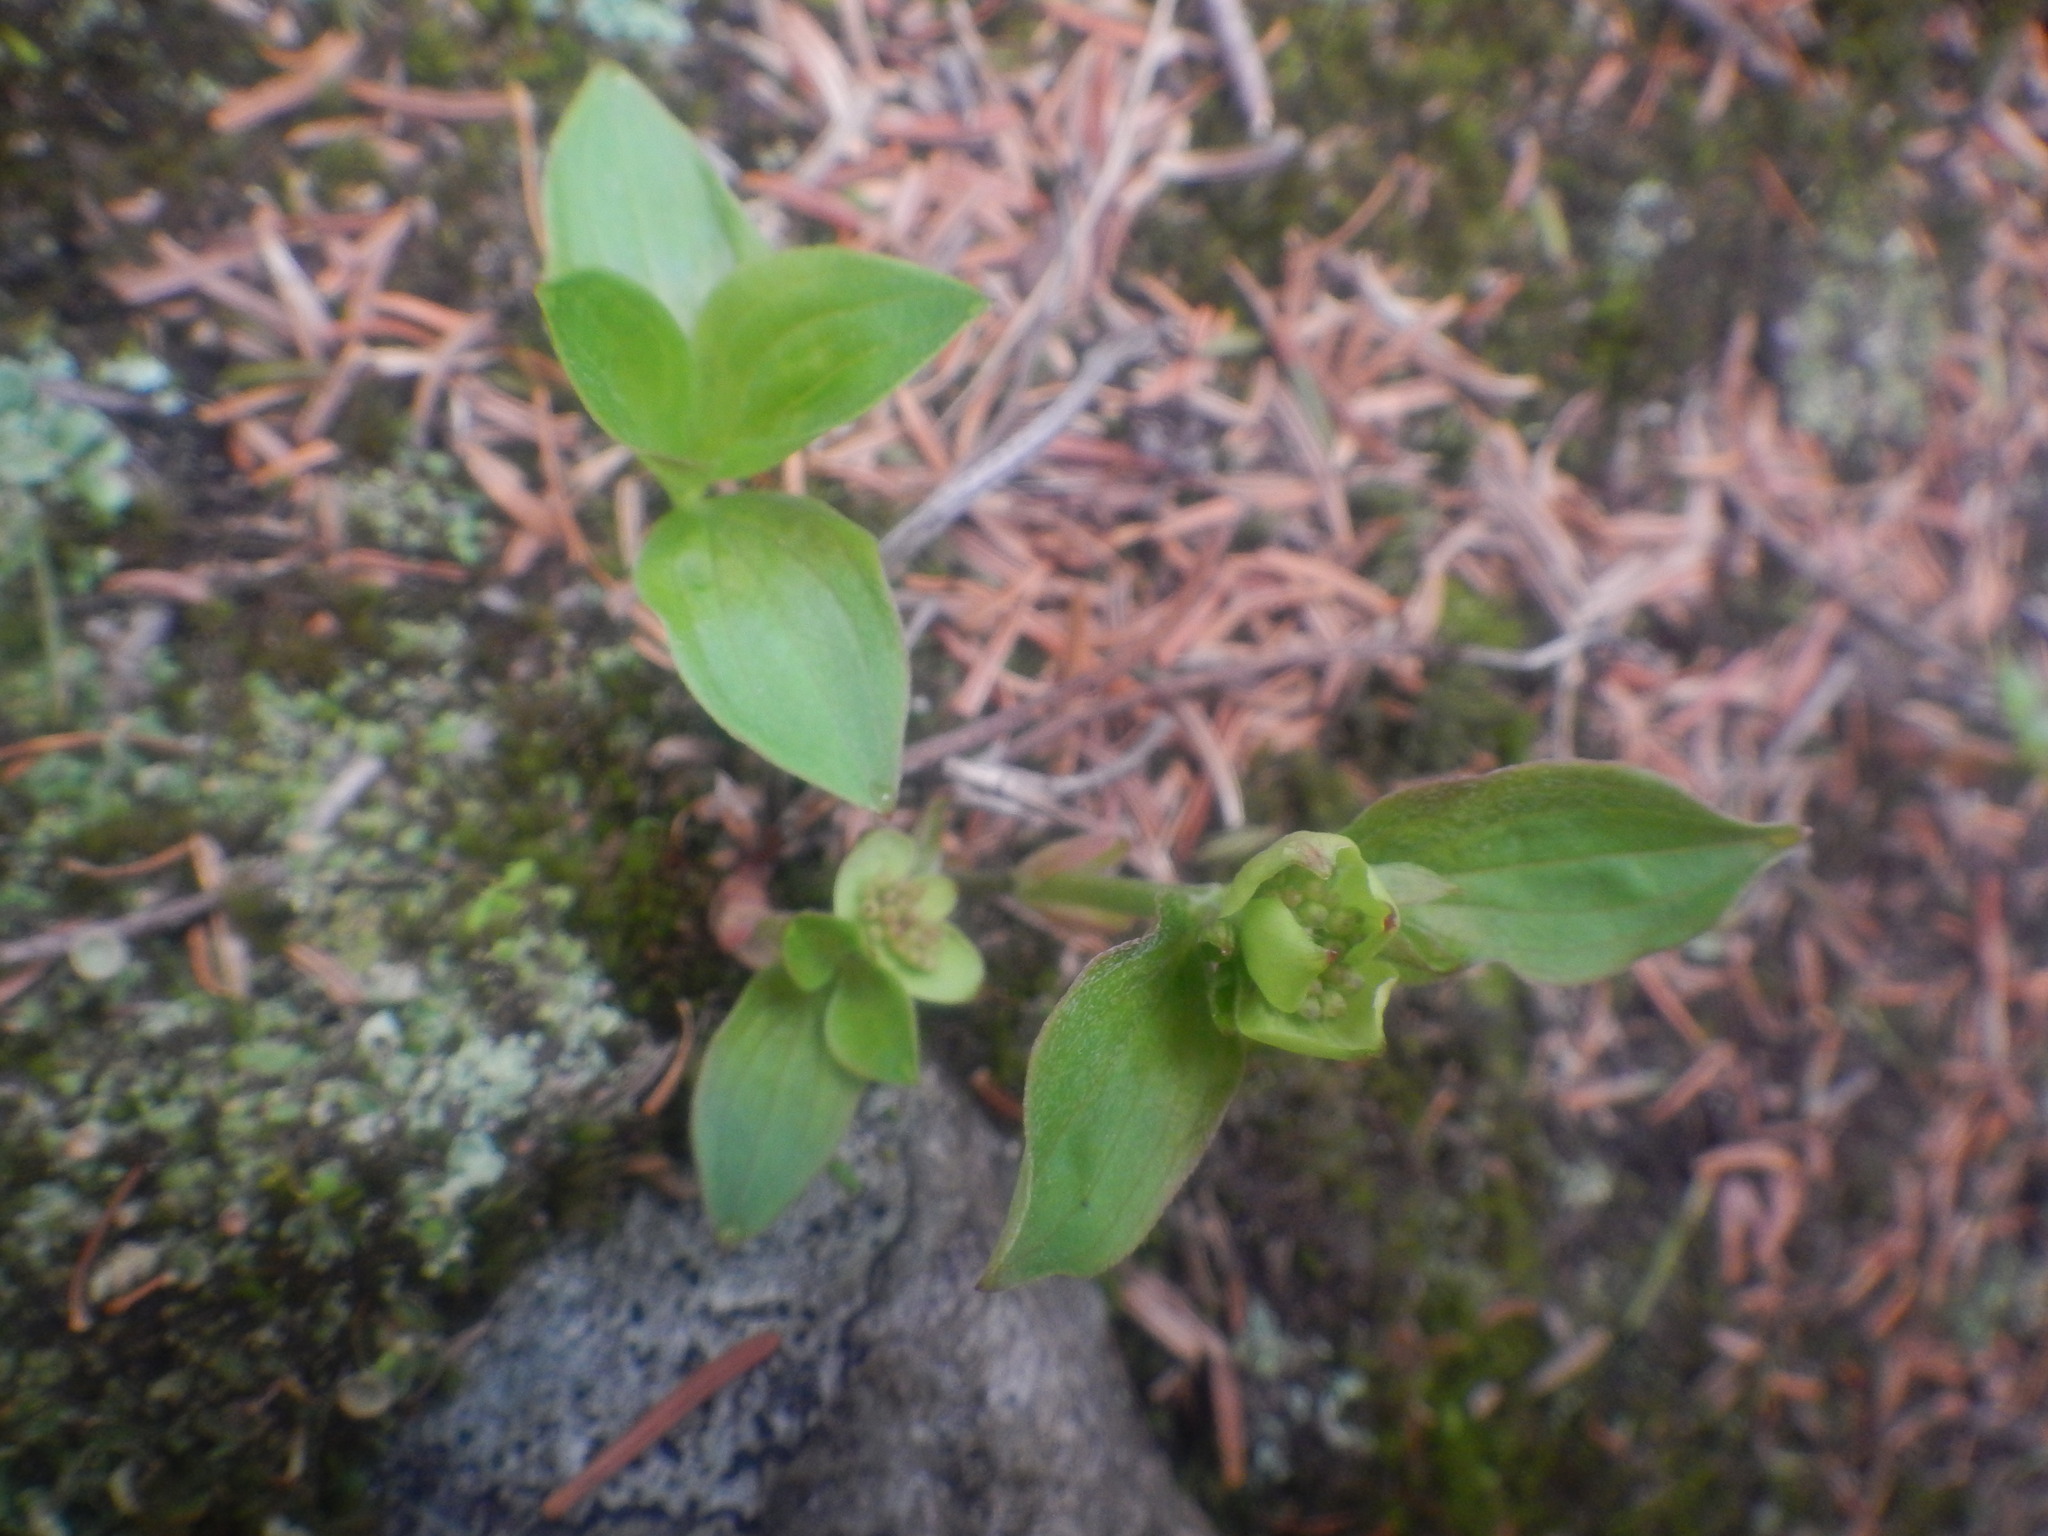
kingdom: Plantae
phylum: Tracheophyta
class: Magnoliopsida
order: Cornales
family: Cornaceae
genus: Cornus
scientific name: Cornus canadensis
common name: Creeping dogwood
